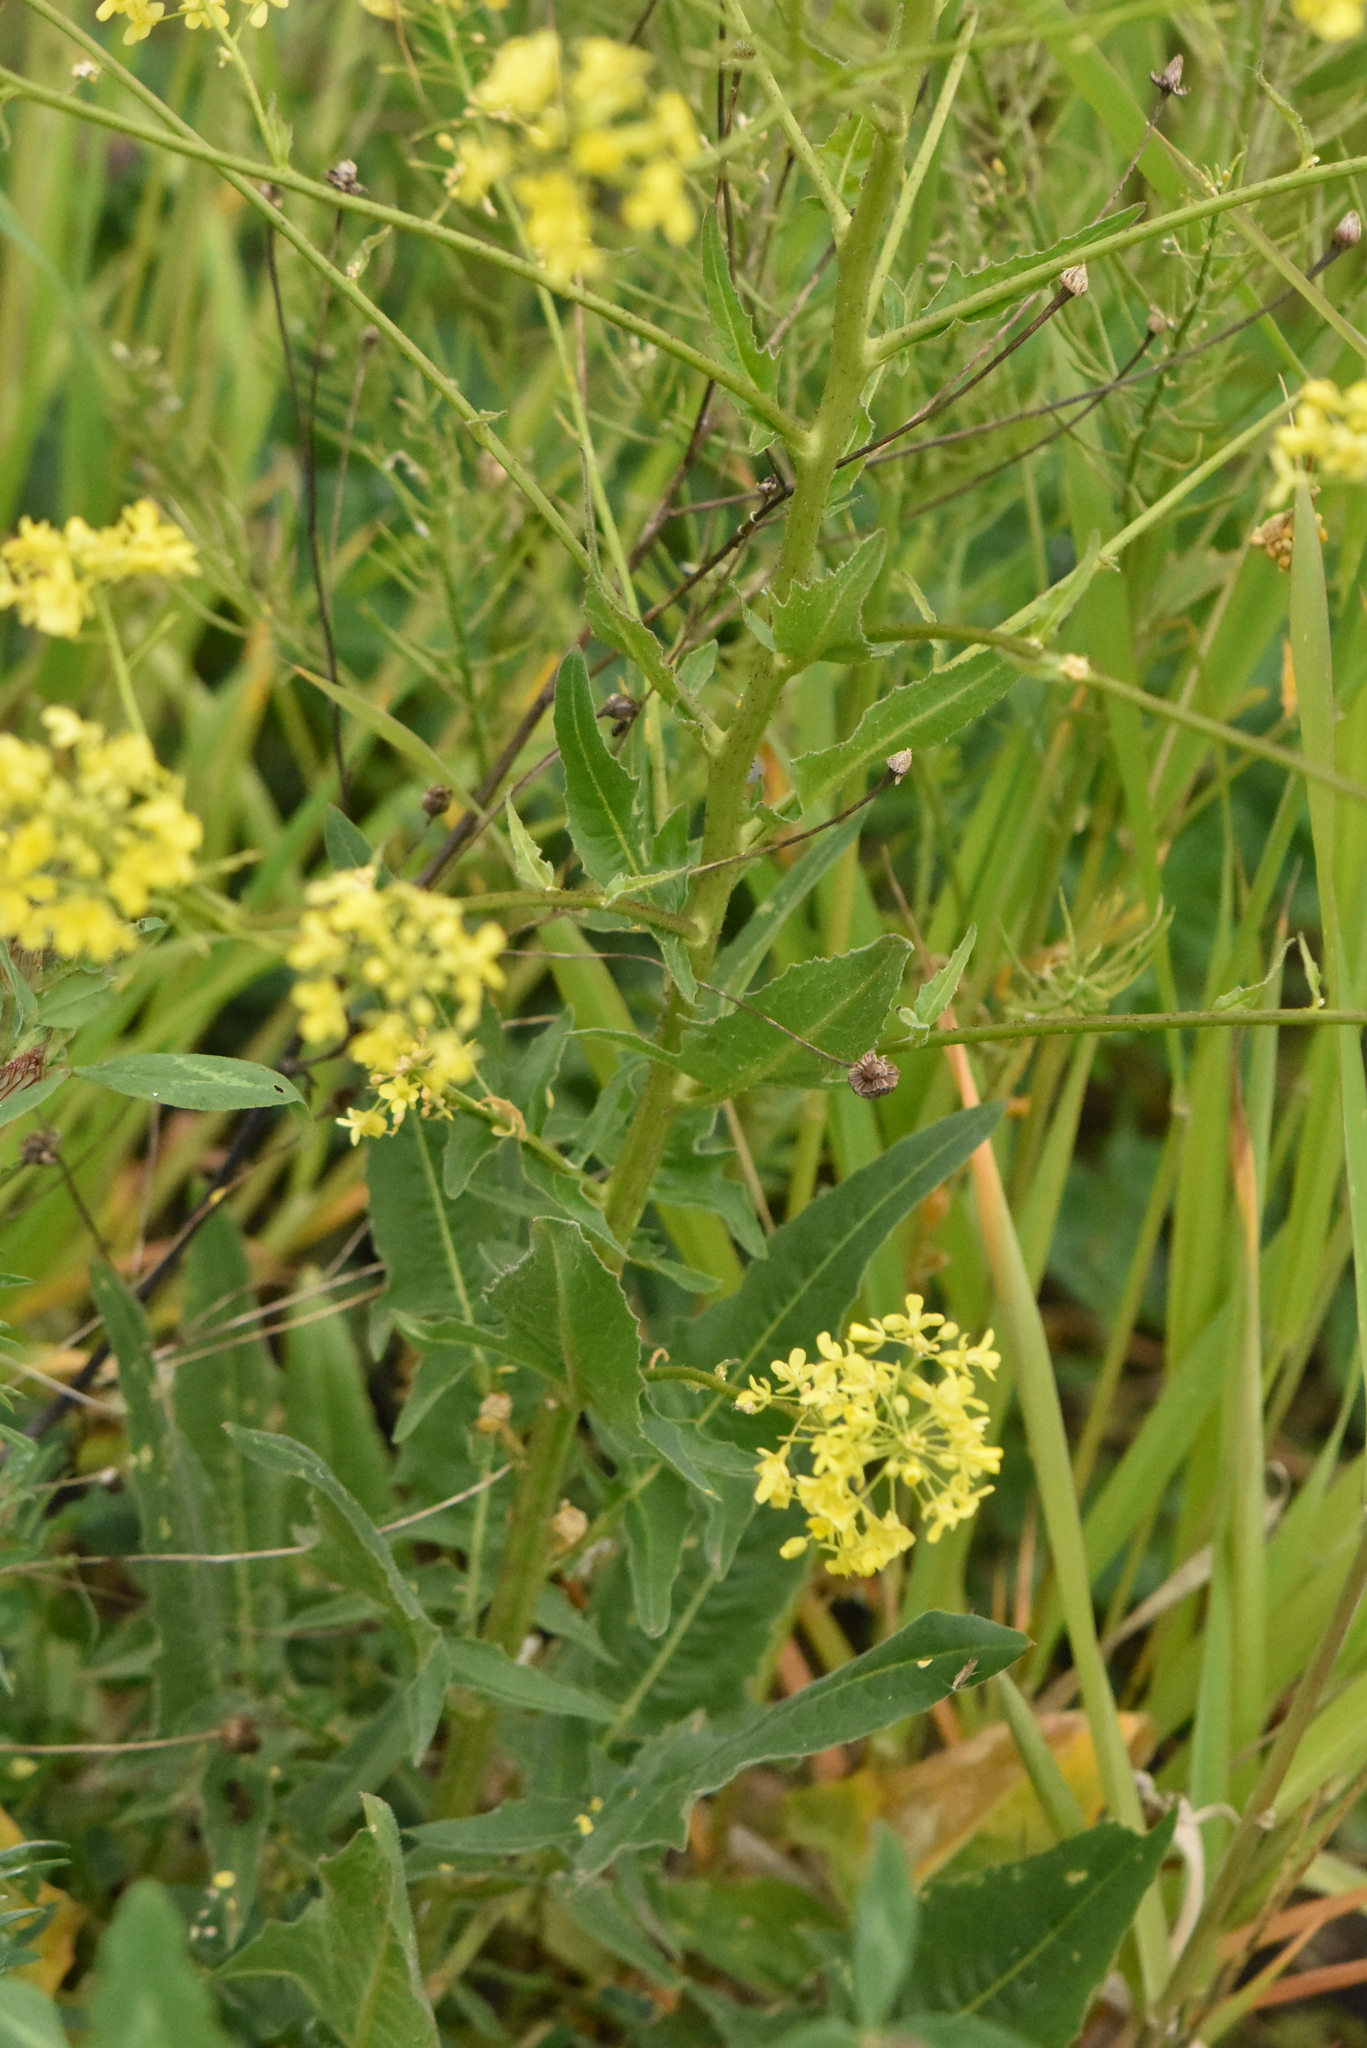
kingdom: Plantae
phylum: Tracheophyta
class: Magnoliopsida
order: Brassicales
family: Brassicaceae
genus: Bunias
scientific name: Bunias orientalis
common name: Warty-cabbage
